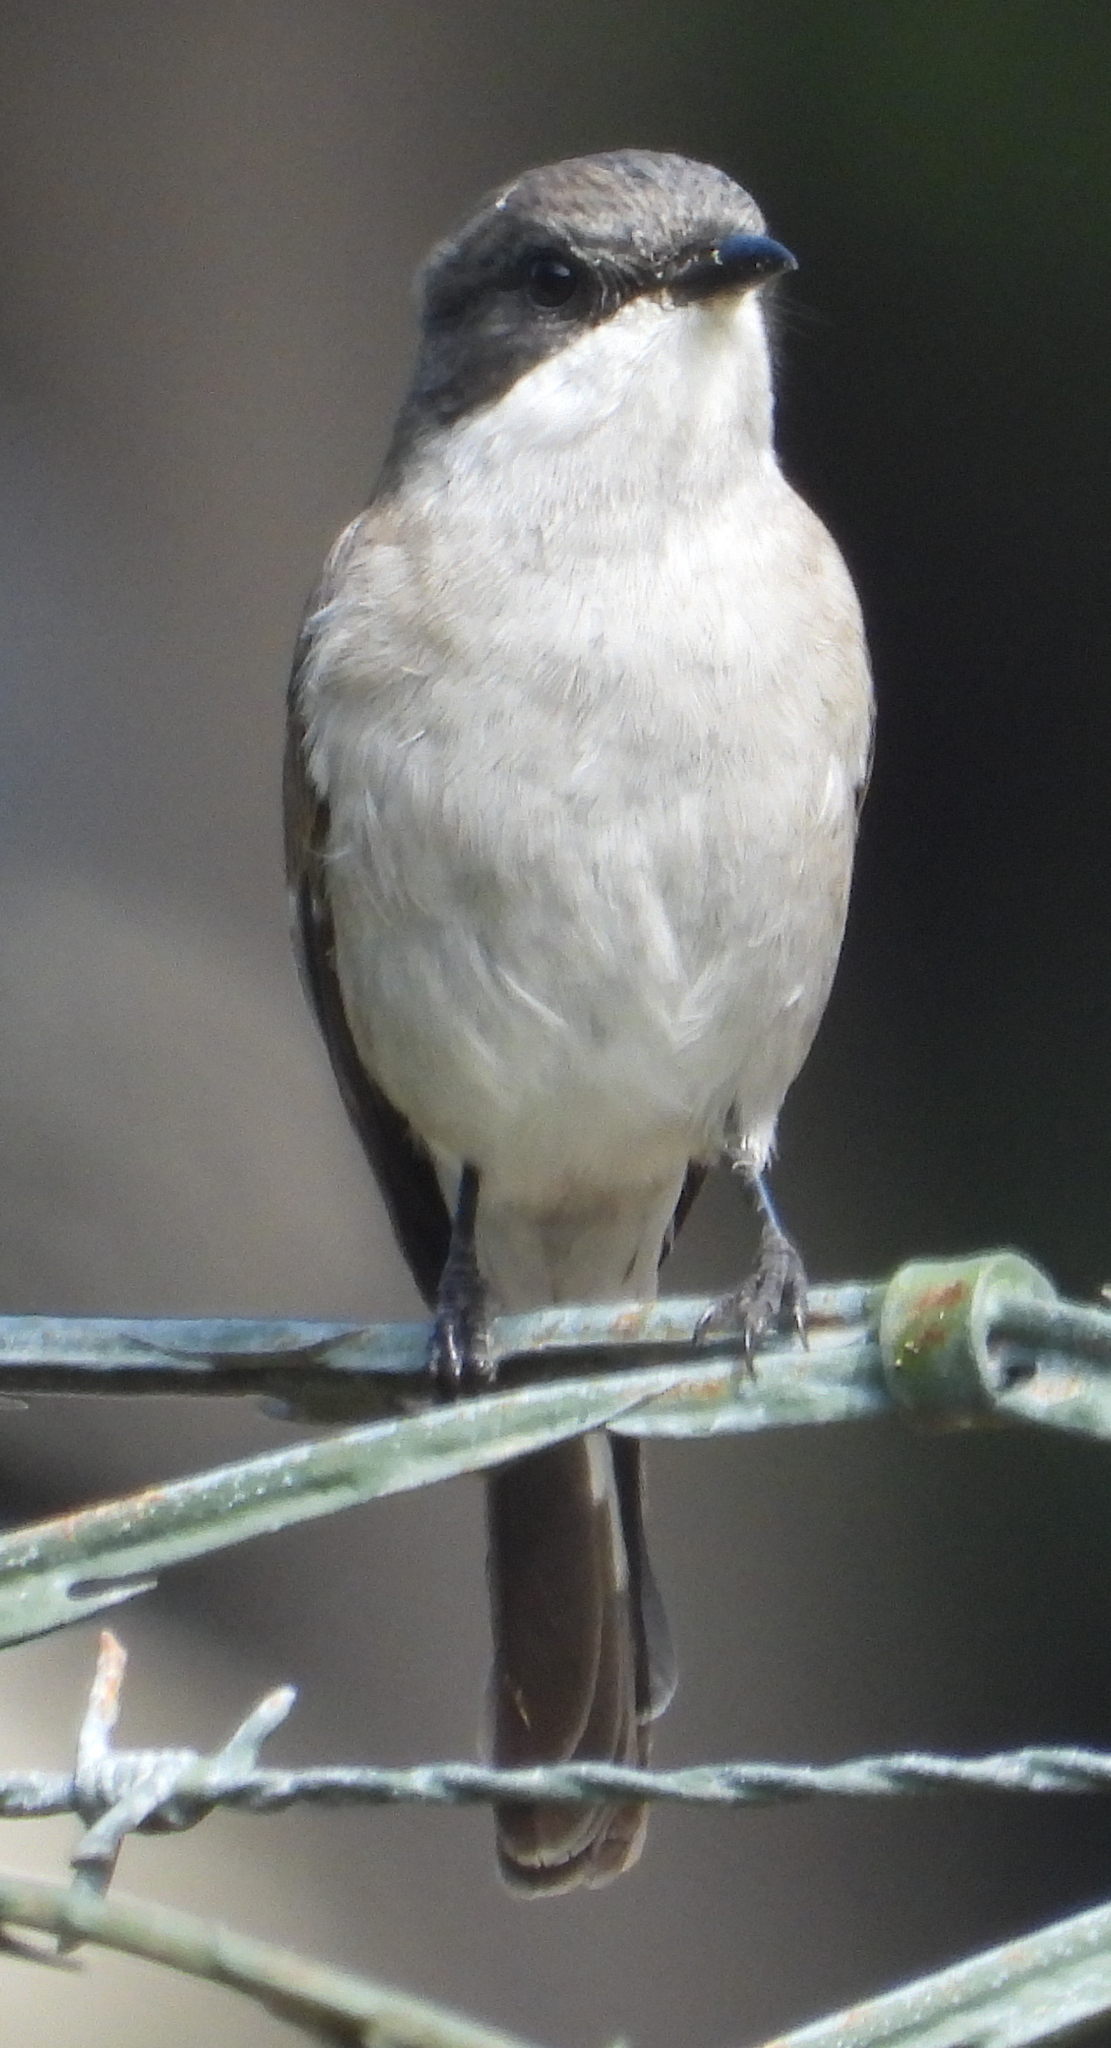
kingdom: Animalia
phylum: Chordata
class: Aves
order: Passeriformes
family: Muscicapidae
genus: Sigelus
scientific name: Sigelus silens
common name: Fiscal flycatcher
